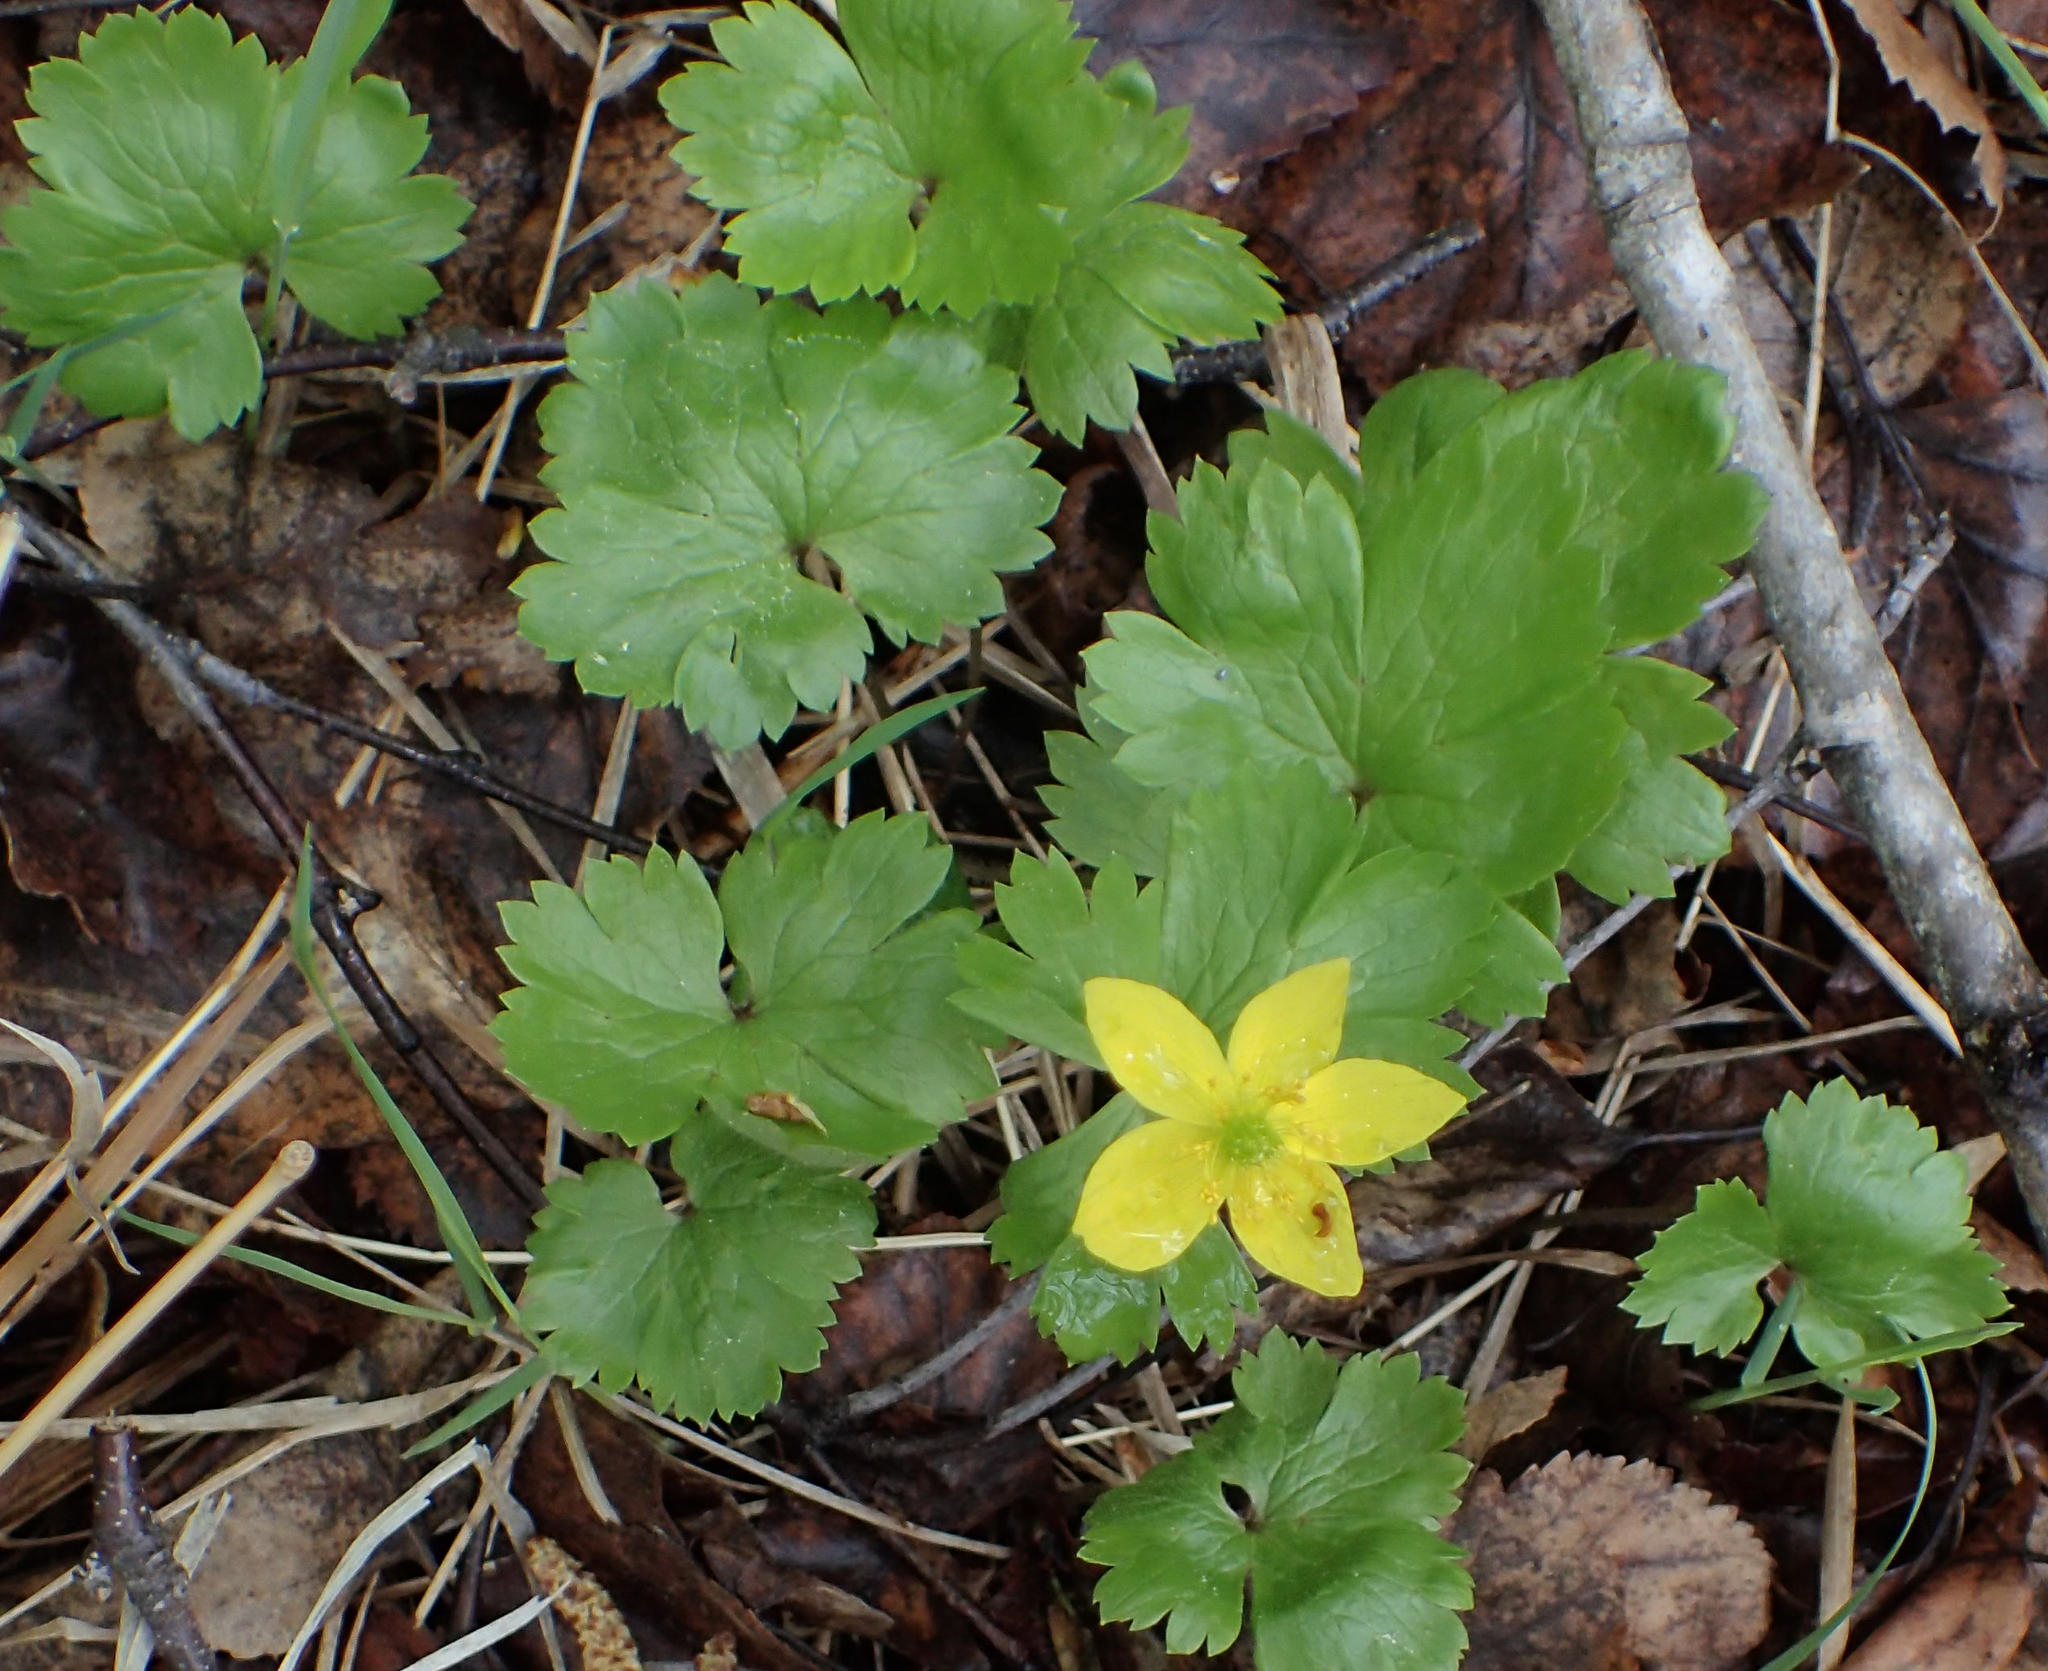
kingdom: Plantae
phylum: Tracheophyta
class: Magnoliopsida
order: Ranunculales
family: Ranunculaceae
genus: Anemonastrum
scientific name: Anemonastrum richardsonii
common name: Richardson's anemone
